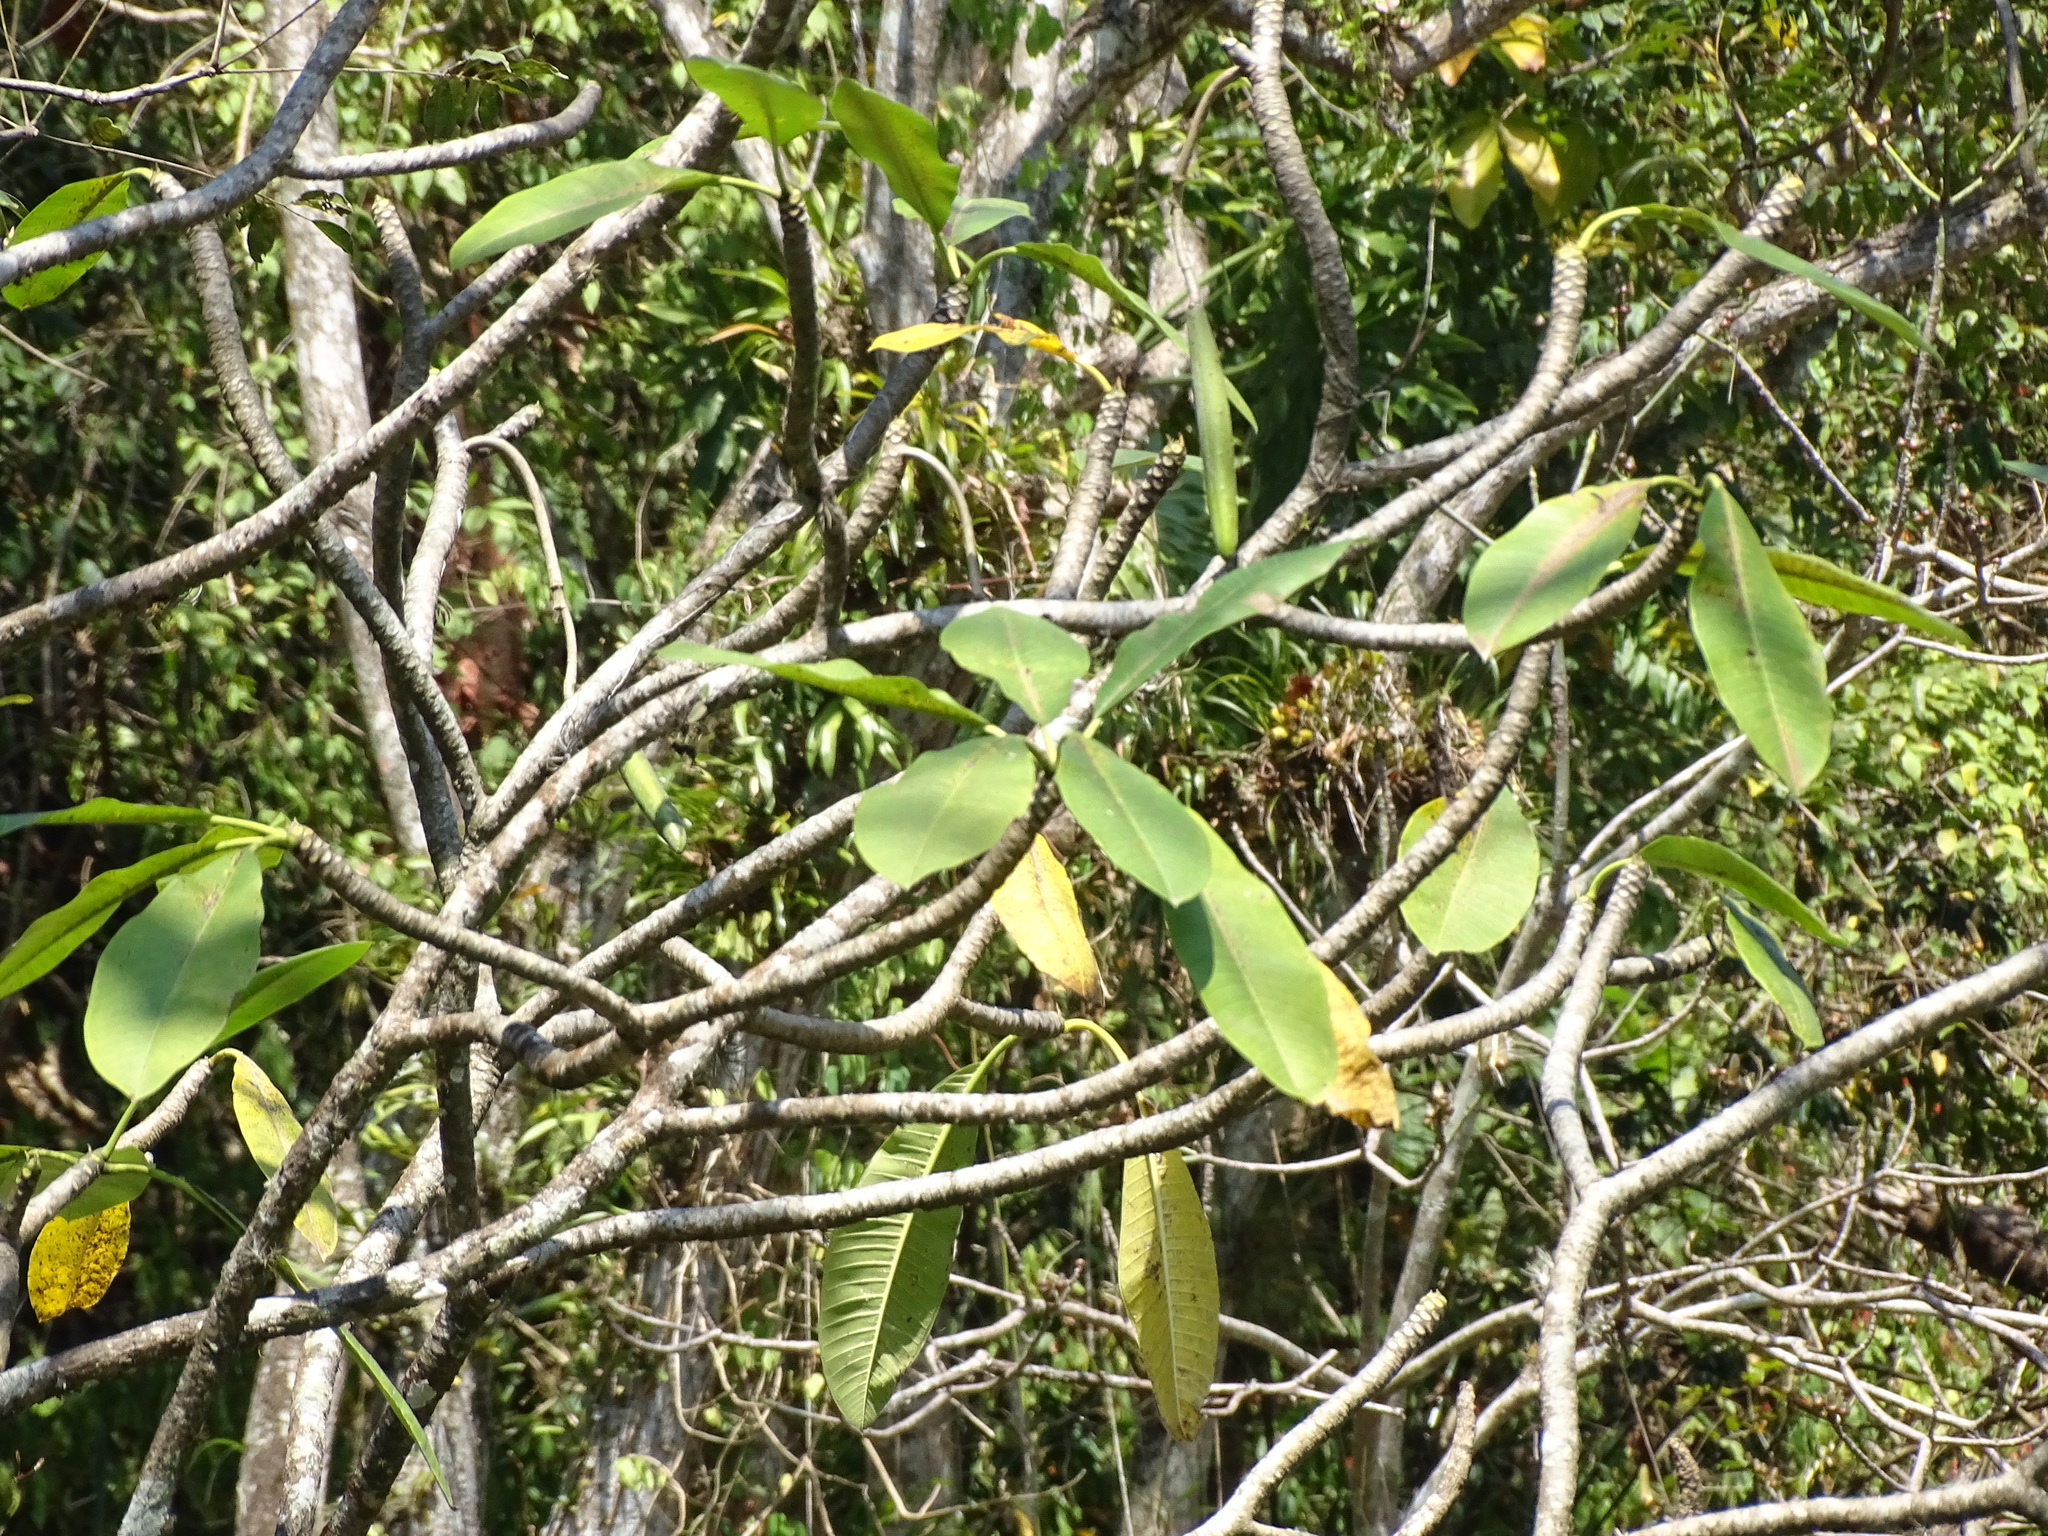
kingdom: Plantae
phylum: Tracheophyta
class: Magnoliopsida
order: Gentianales
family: Apocynaceae
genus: Plumeria
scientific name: Plumeria rubra
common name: Pagoda-tree
